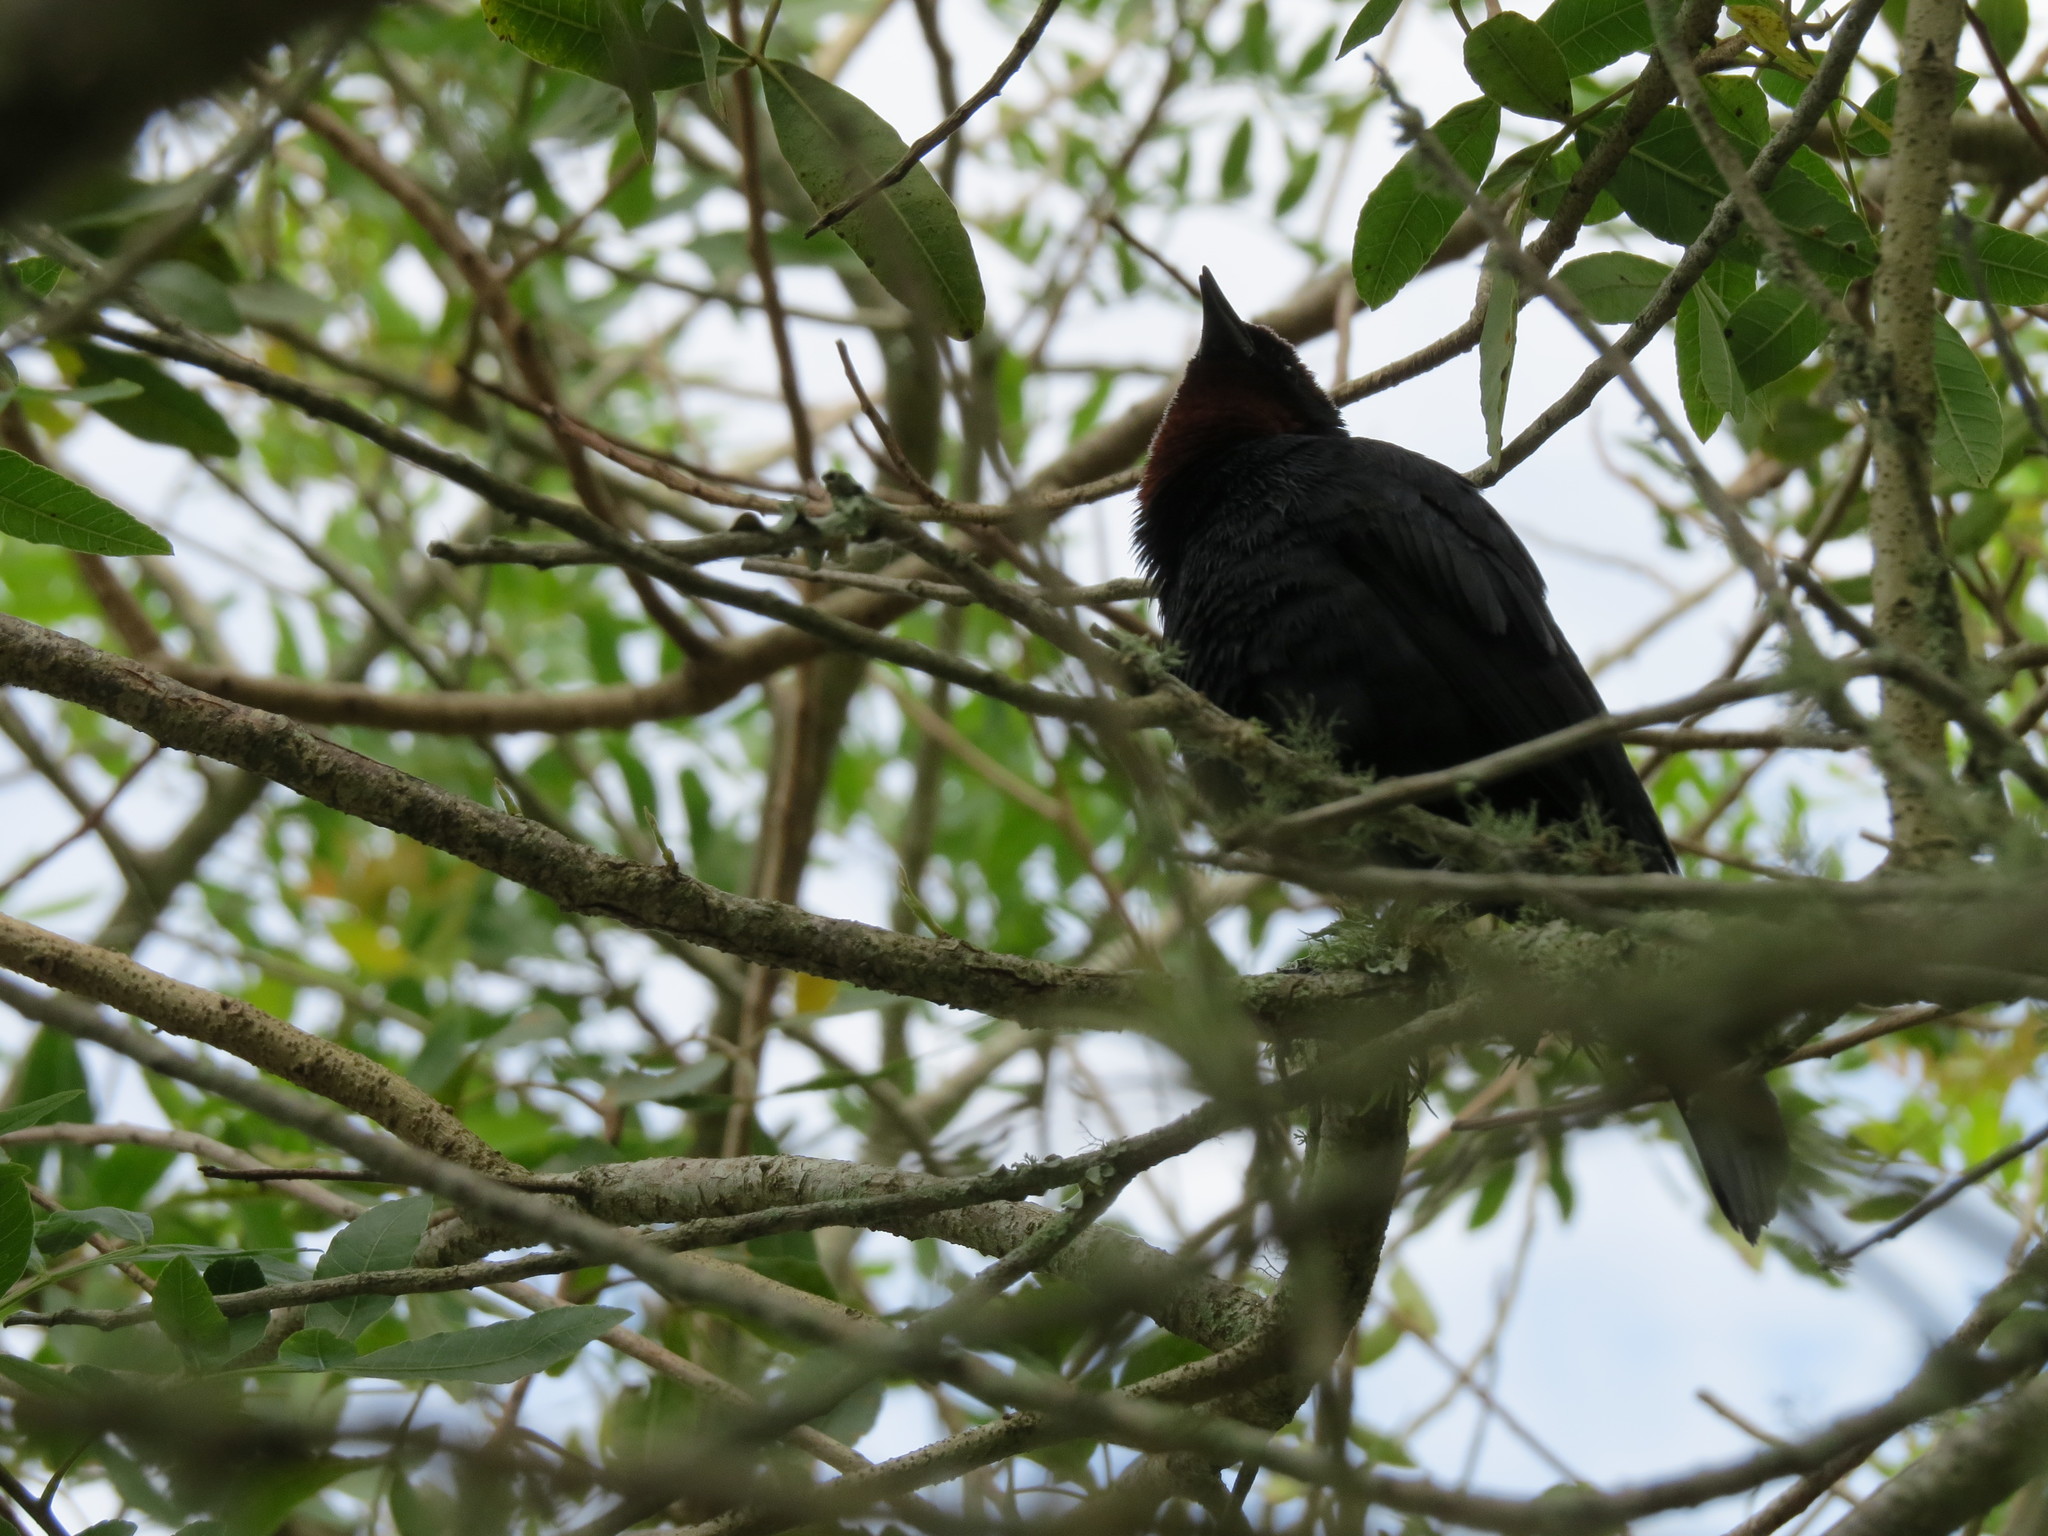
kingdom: Animalia
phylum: Chordata
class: Aves
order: Passeriformes
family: Icteridae
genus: Chrysomus
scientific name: Chrysomus ruficapillus
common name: Chestnut-capped blackbird
